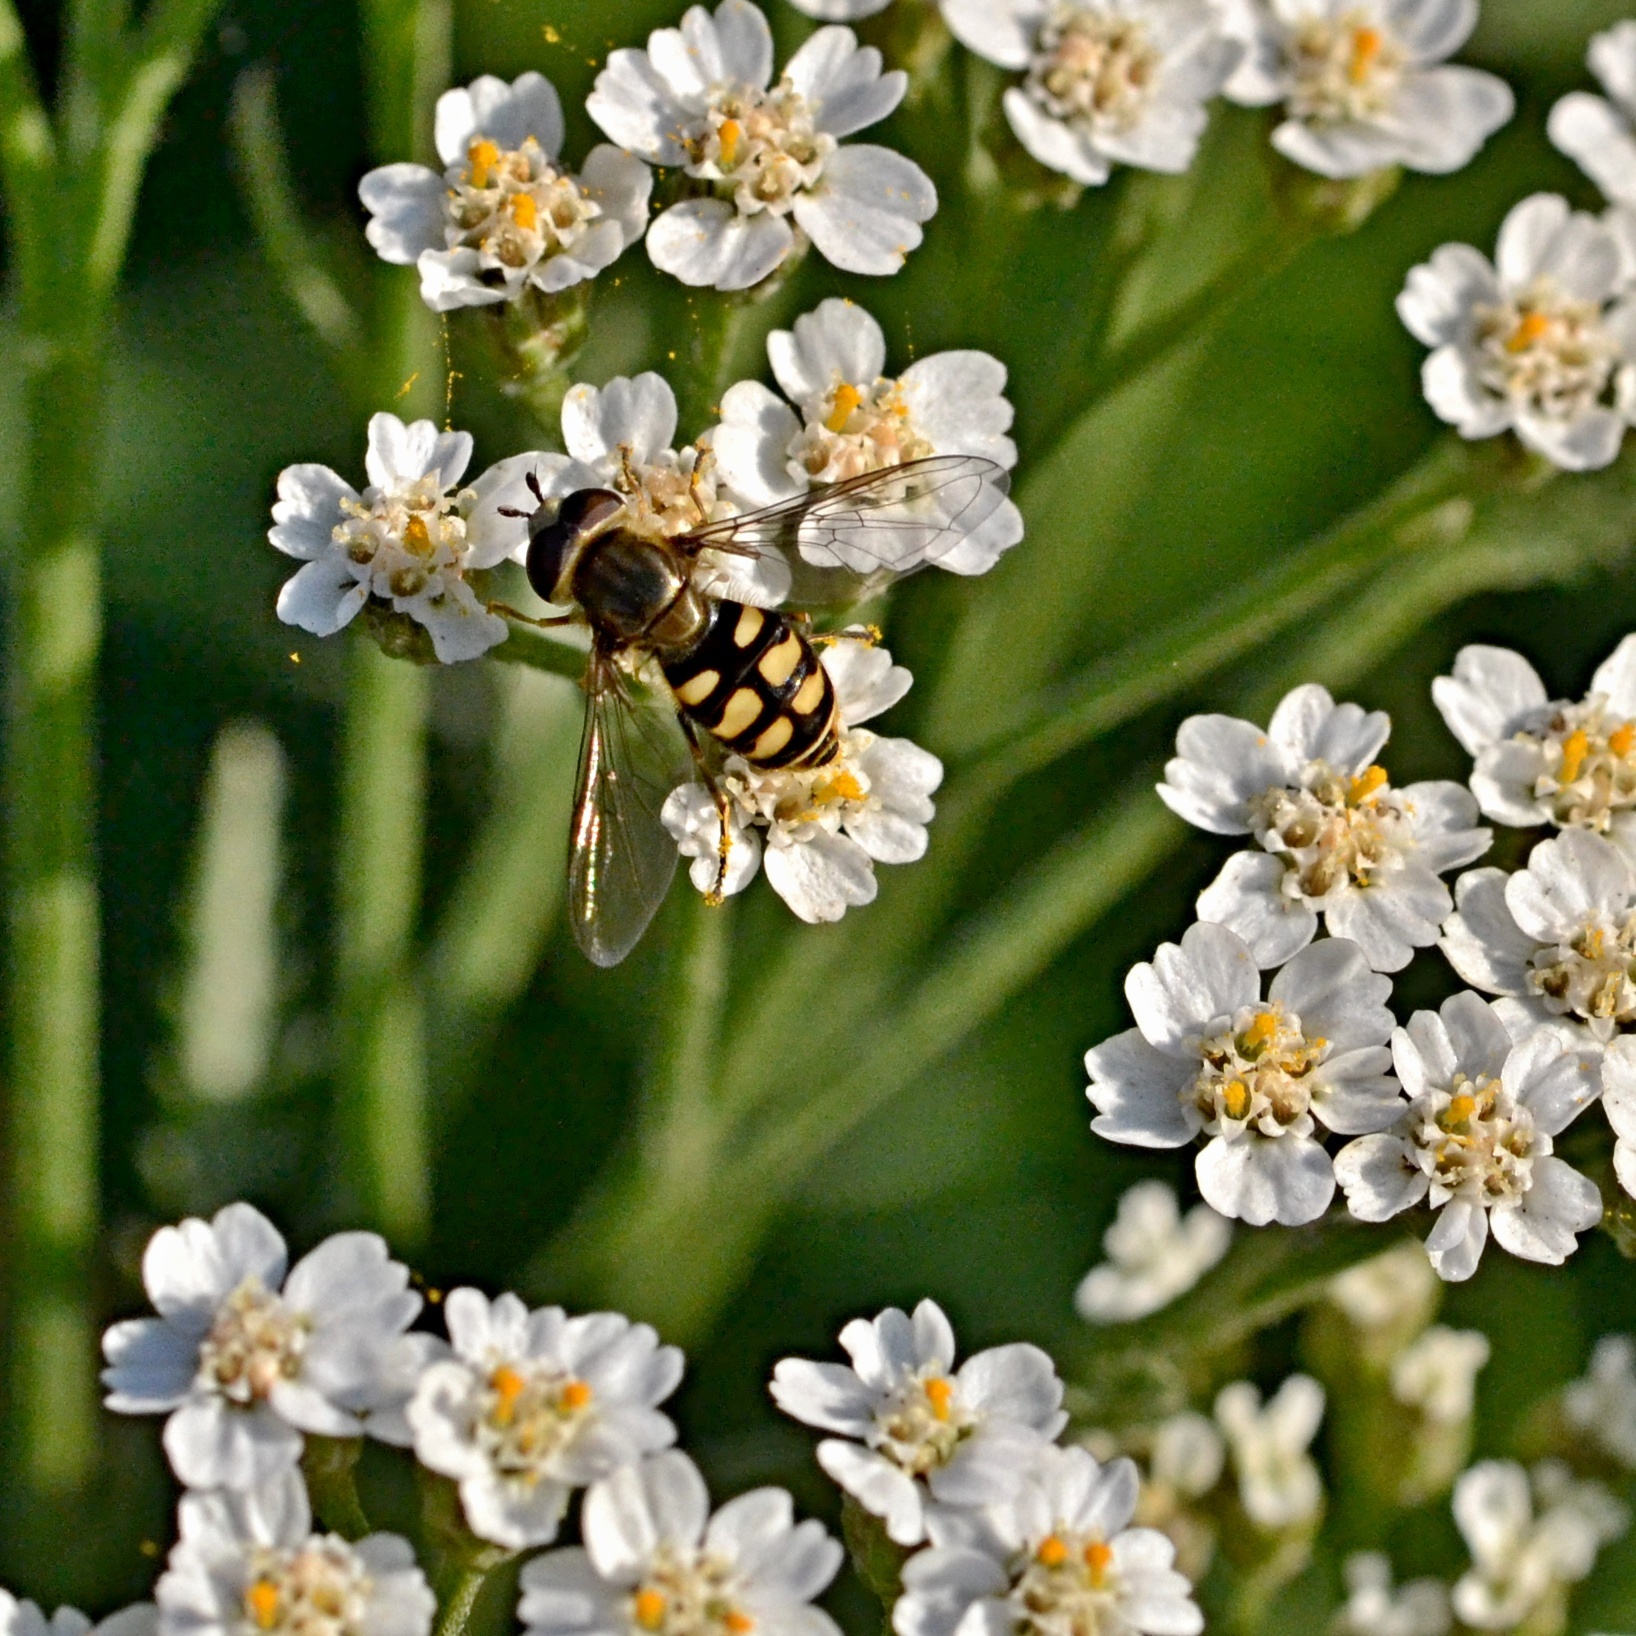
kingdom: Animalia
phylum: Arthropoda
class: Insecta
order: Diptera
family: Syrphidae
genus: Eupeodes
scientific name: Eupeodes corollae
